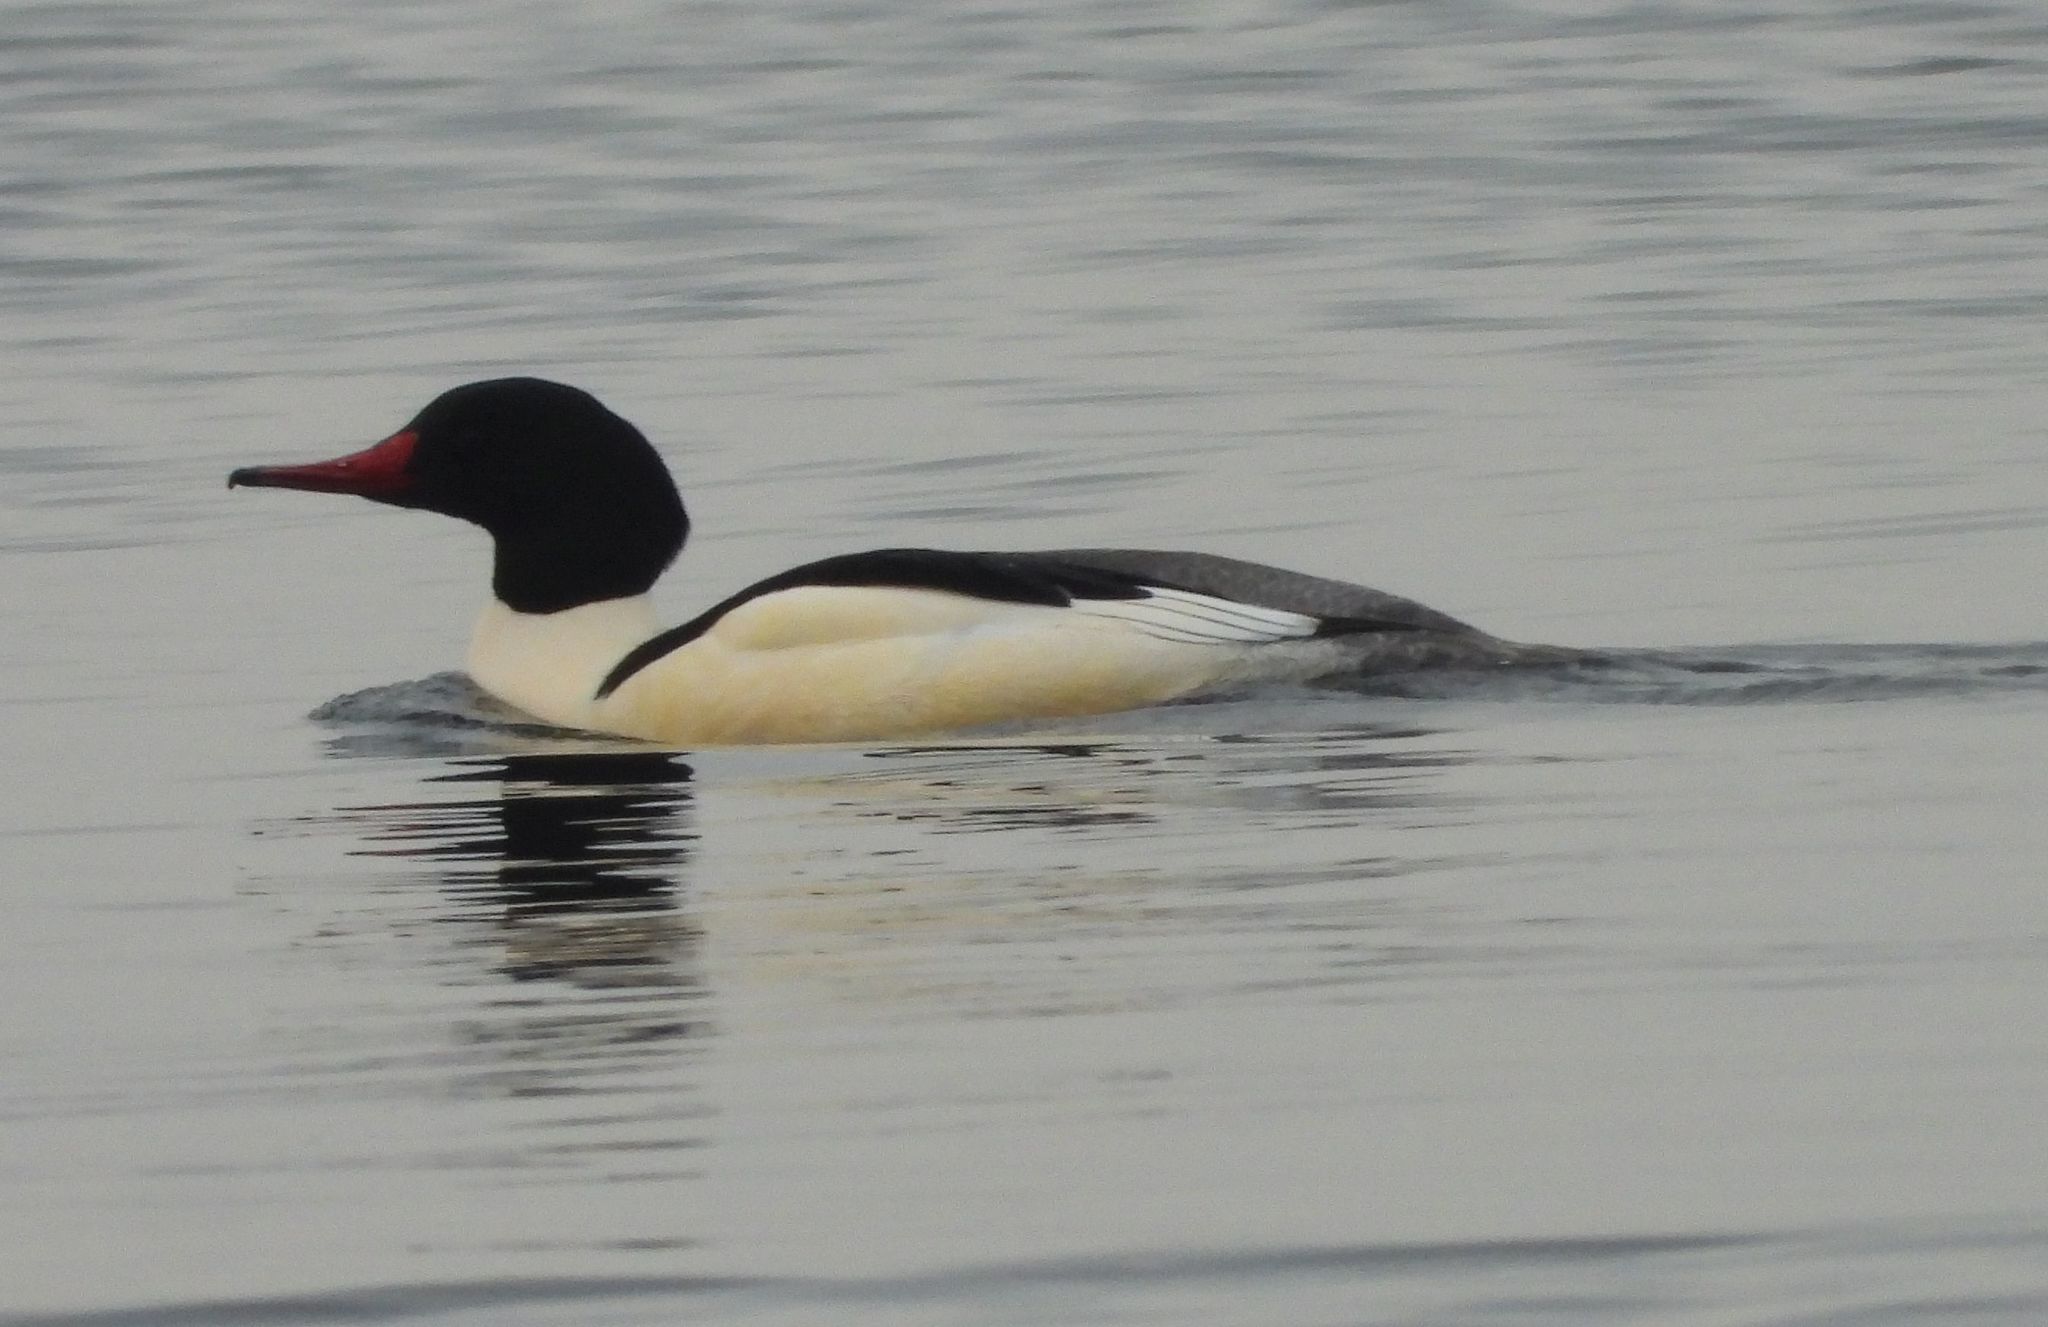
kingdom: Animalia
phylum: Chordata
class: Aves
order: Anseriformes
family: Anatidae
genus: Mergus
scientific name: Mergus merganser
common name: Common merganser
